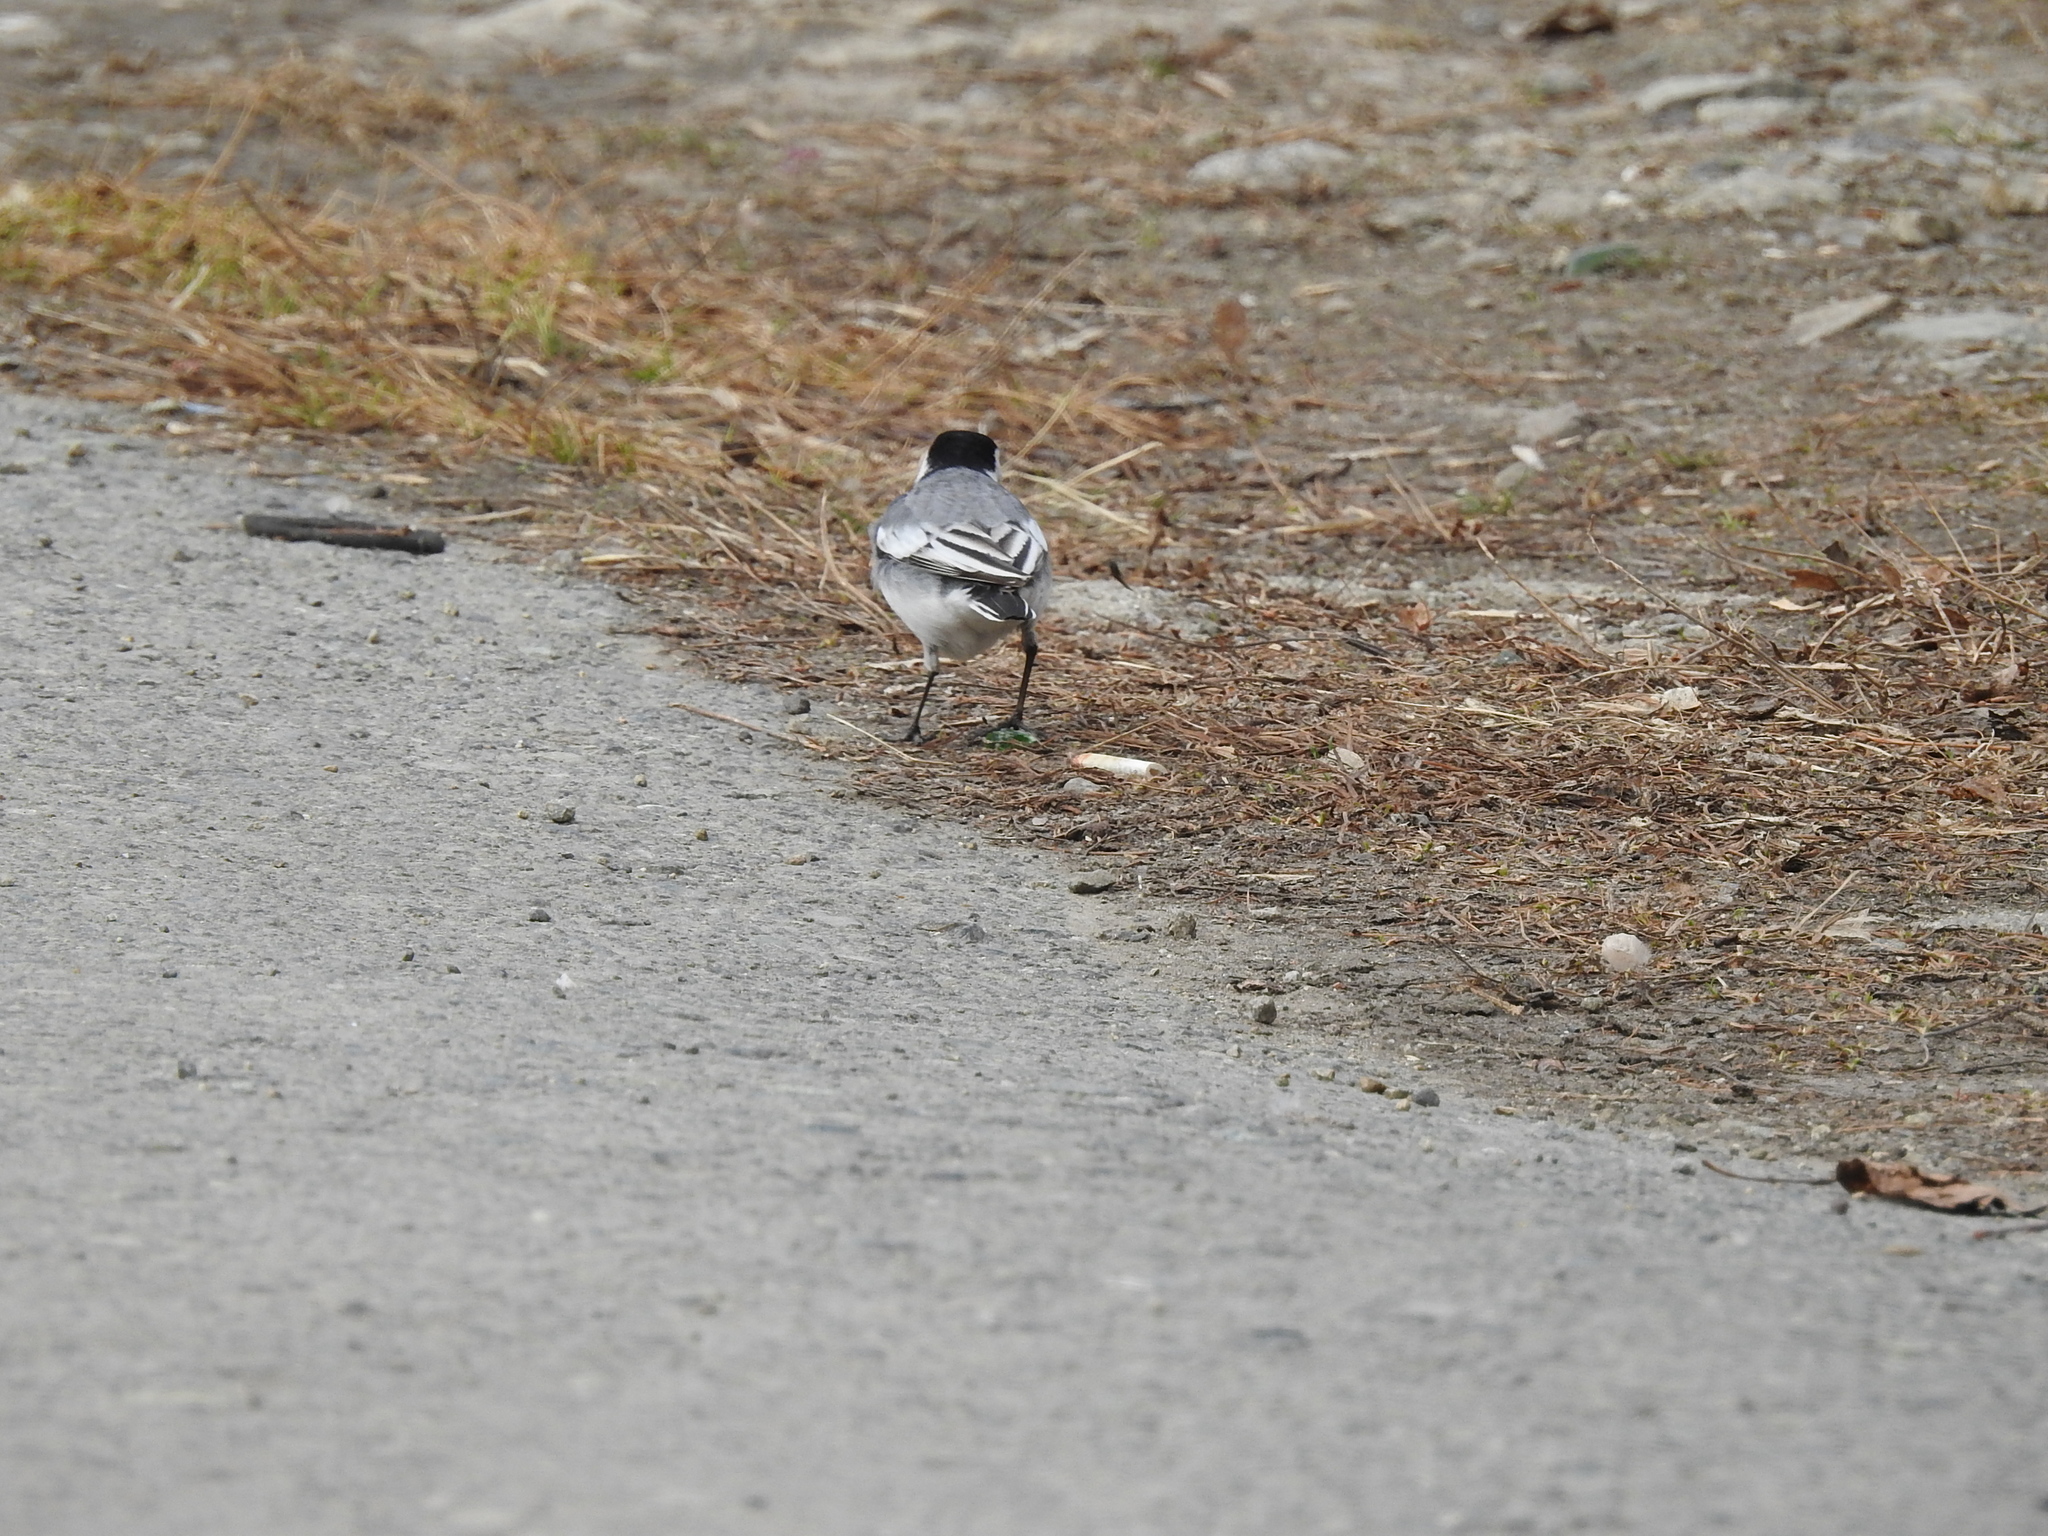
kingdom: Animalia
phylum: Chordata
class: Aves
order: Passeriformes
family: Motacillidae
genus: Motacilla
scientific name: Motacilla alba
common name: White wagtail
